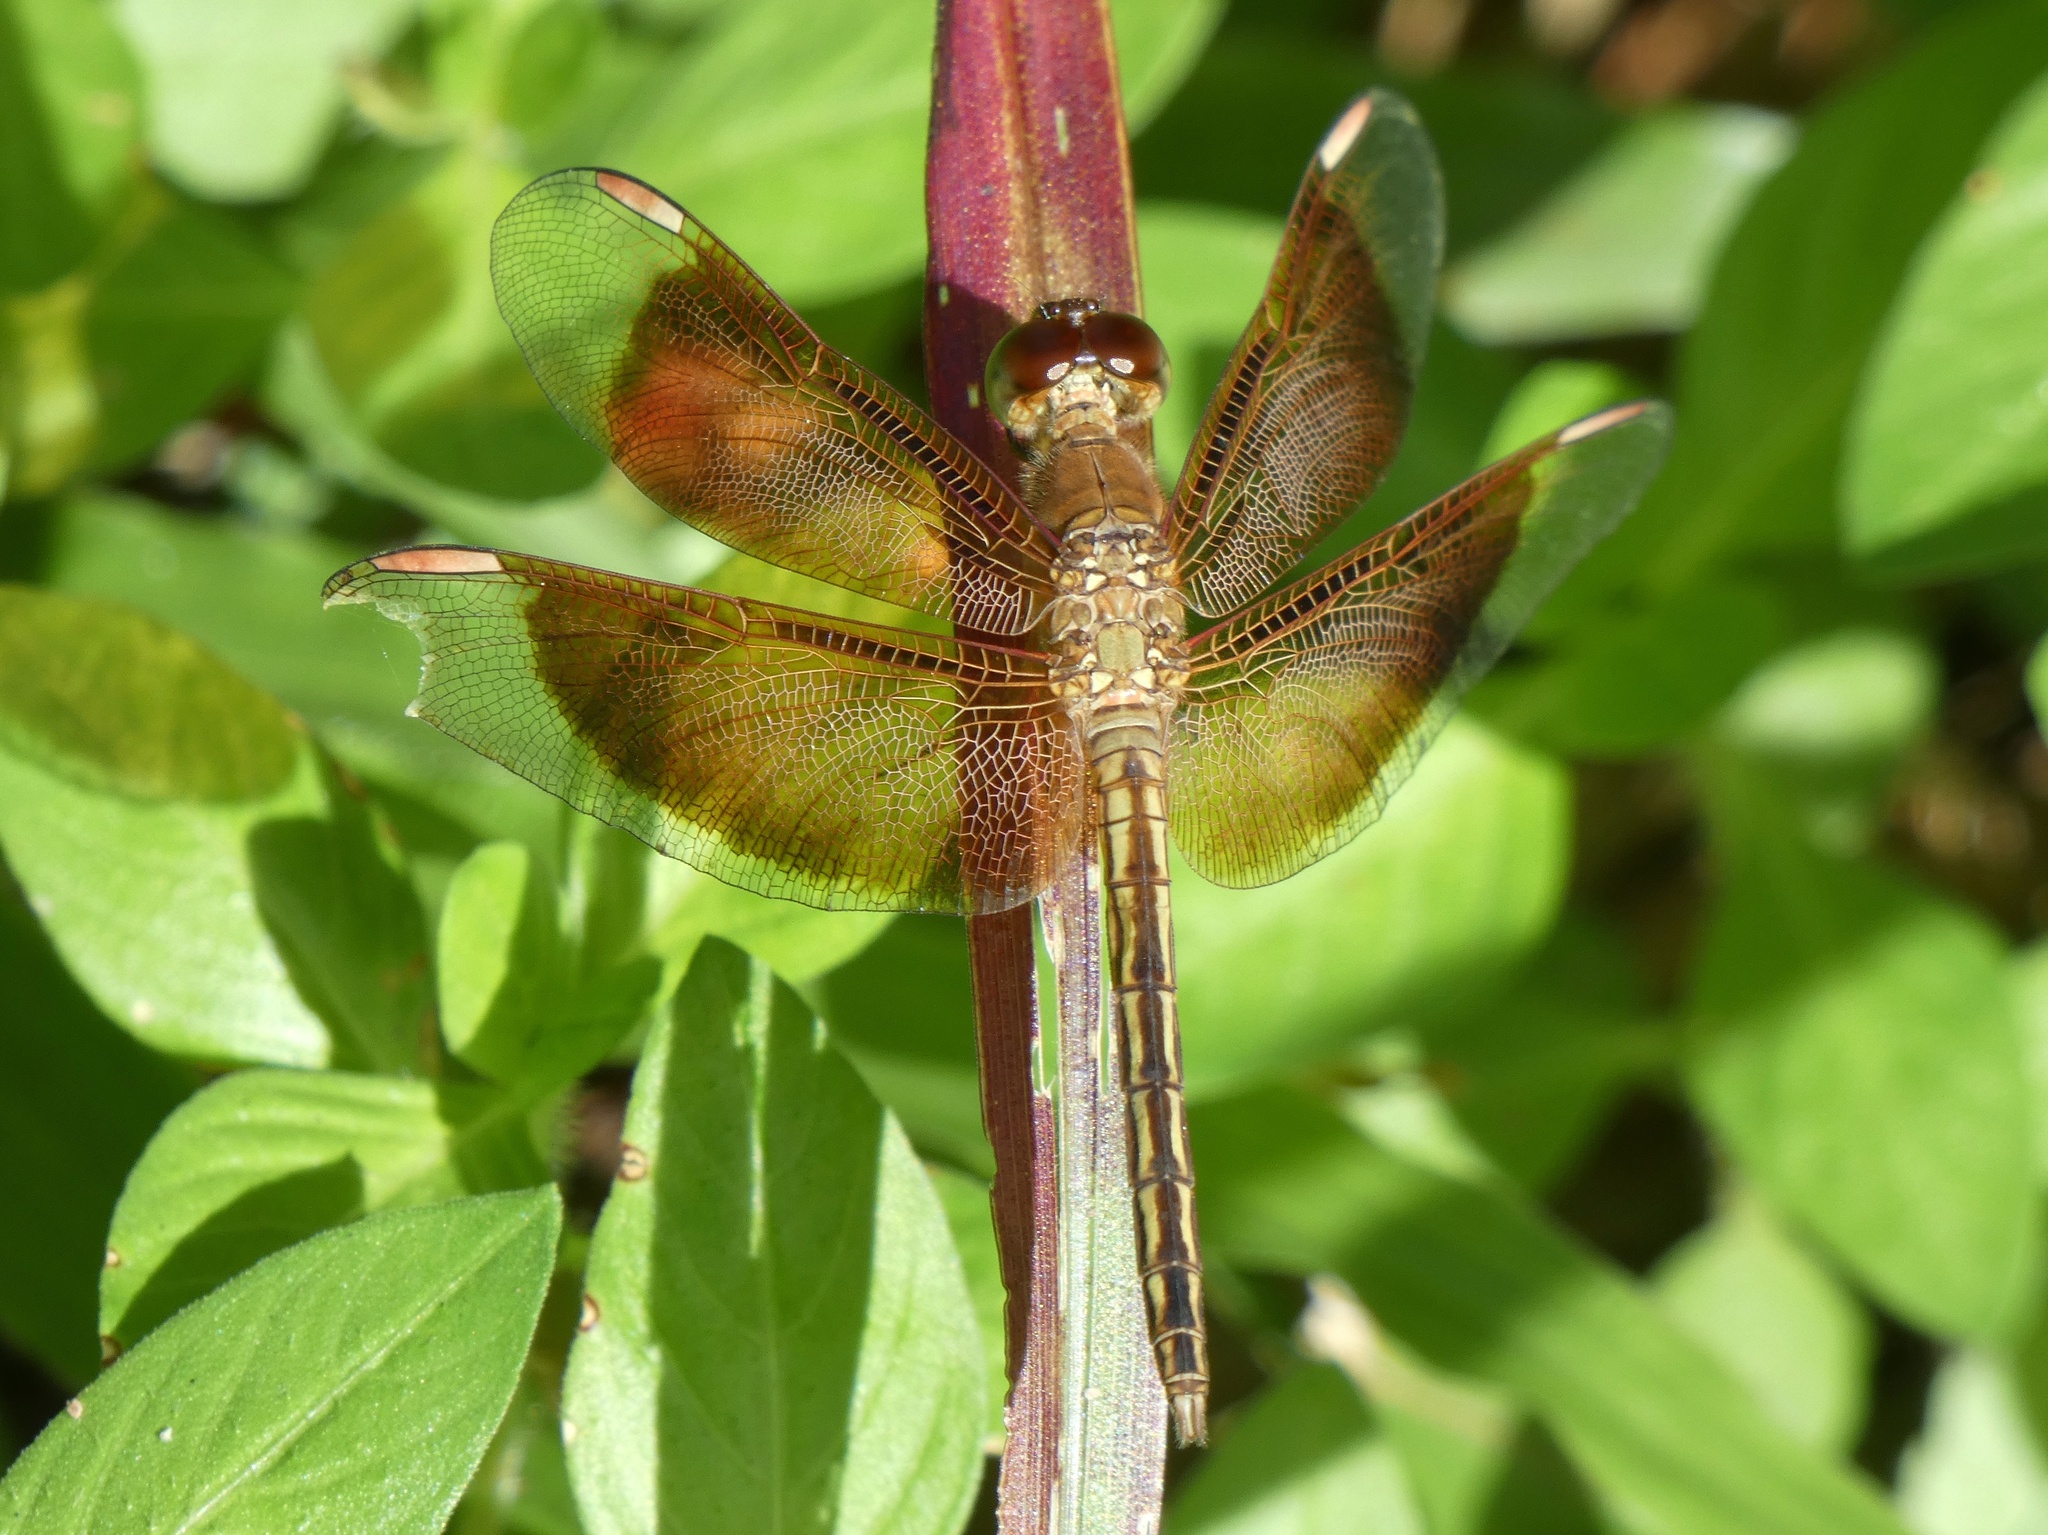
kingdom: Animalia
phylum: Arthropoda
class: Insecta
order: Odonata
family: Libellulidae
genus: Neurothemis
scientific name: Neurothemis stigmatizans
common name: Painted grasshawk
